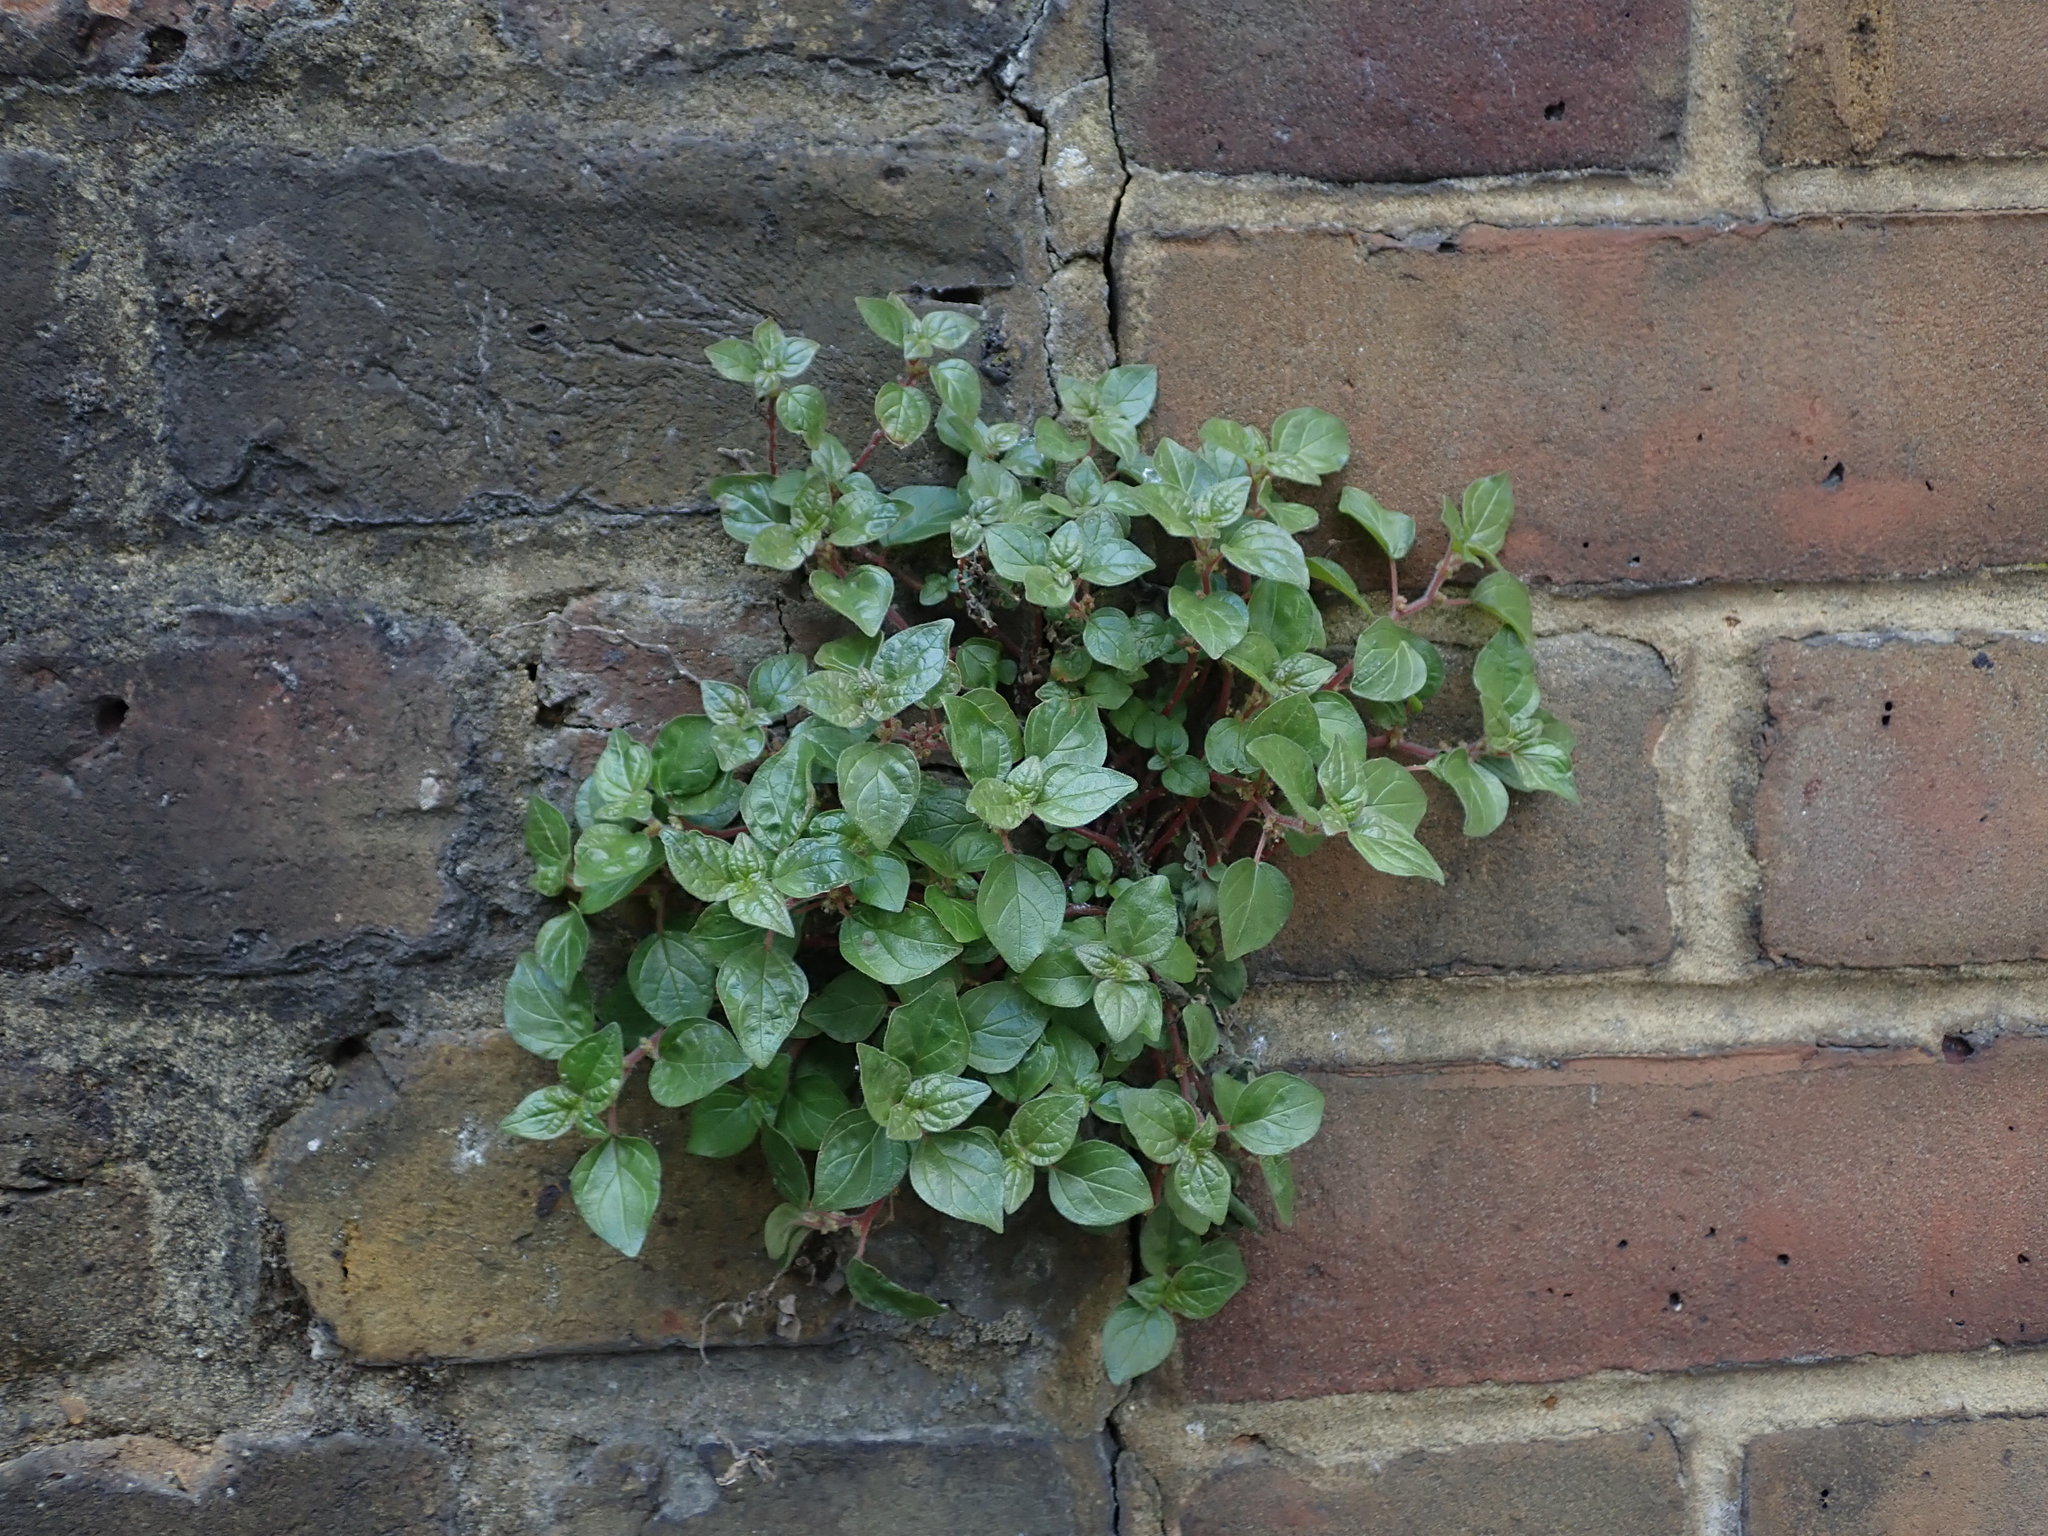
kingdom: Plantae
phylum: Tracheophyta
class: Magnoliopsida
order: Rosales
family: Urticaceae
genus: Parietaria
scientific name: Parietaria judaica
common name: Pellitory-of-the-wall
